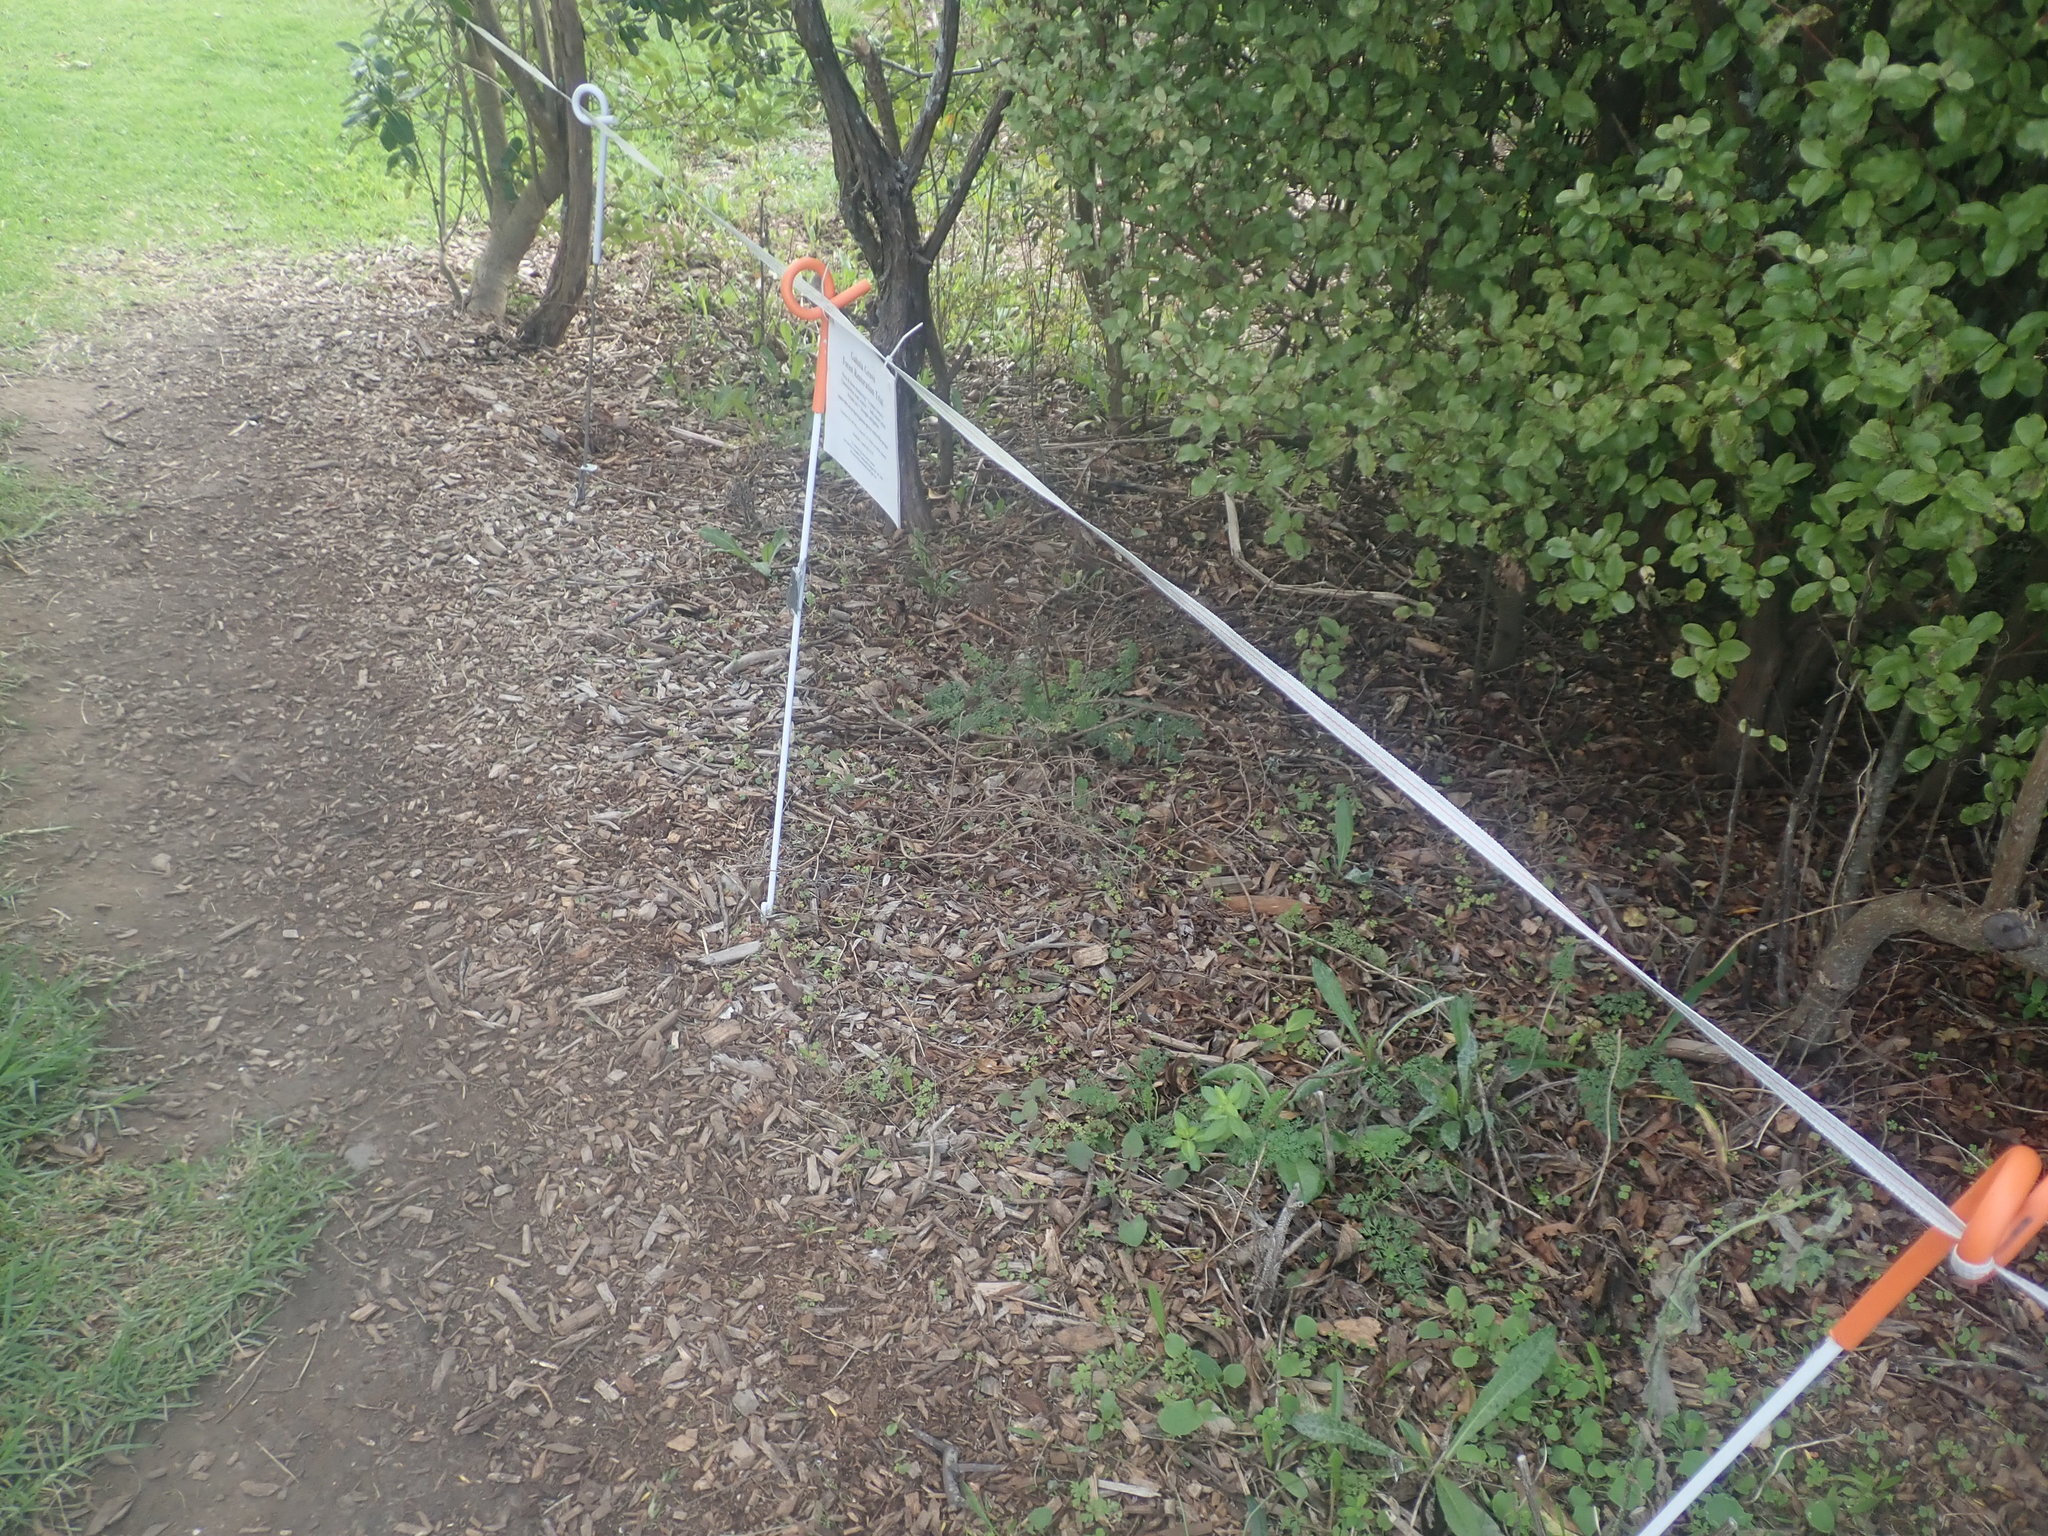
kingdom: Plantae
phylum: Tracheophyta
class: Magnoliopsida
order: Ericales
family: Primulaceae
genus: Myrsine
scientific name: Myrsine australis
